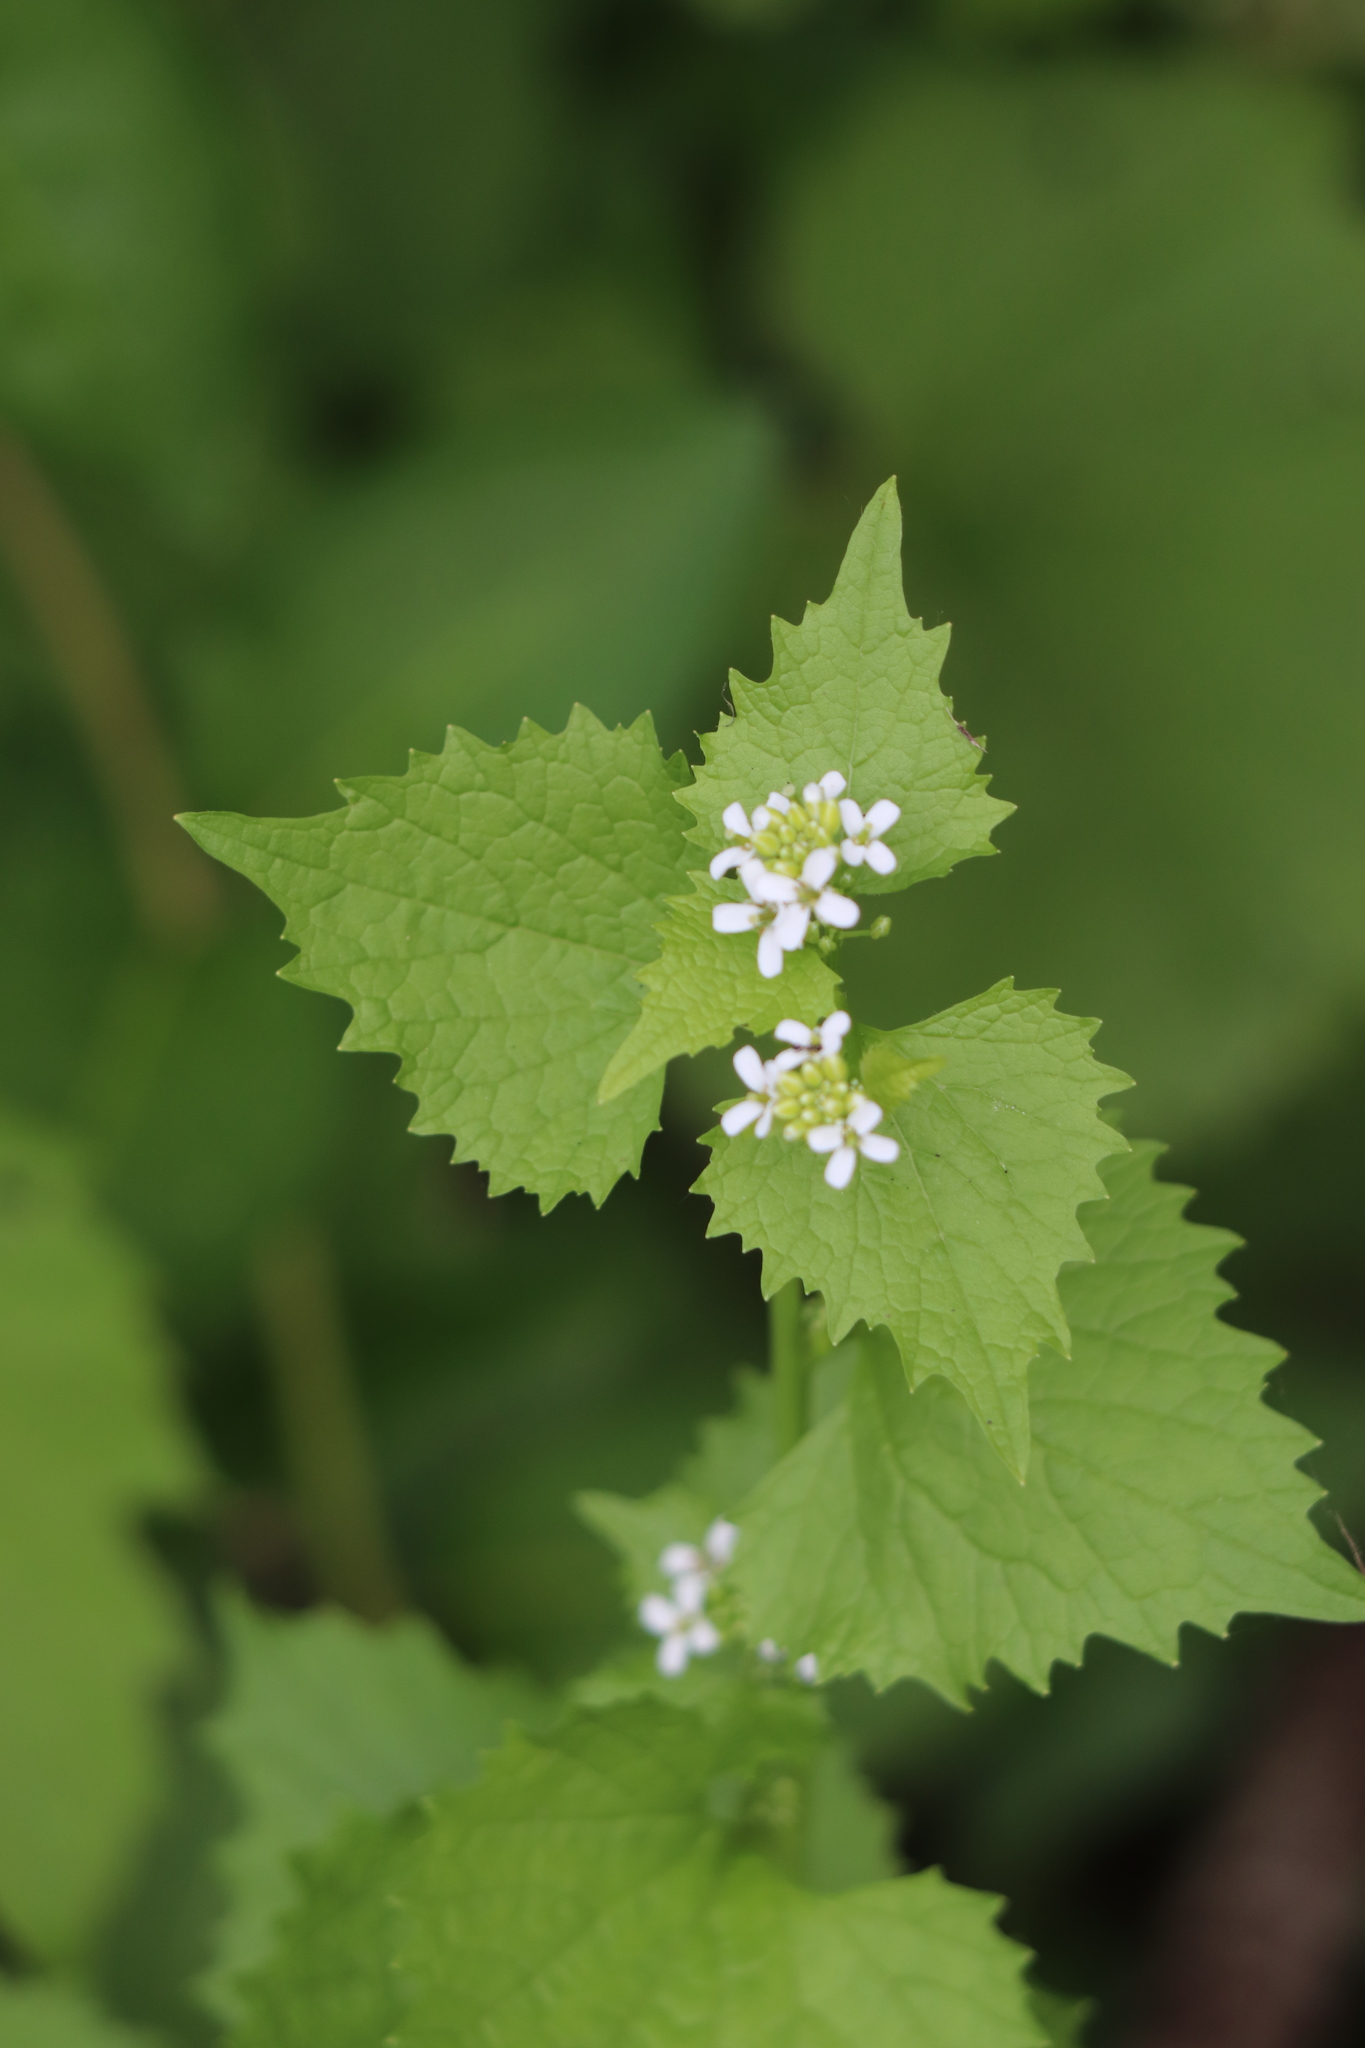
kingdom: Plantae
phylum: Tracheophyta
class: Magnoliopsida
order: Brassicales
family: Brassicaceae
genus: Alliaria
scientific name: Alliaria petiolata
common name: Garlic mustard
